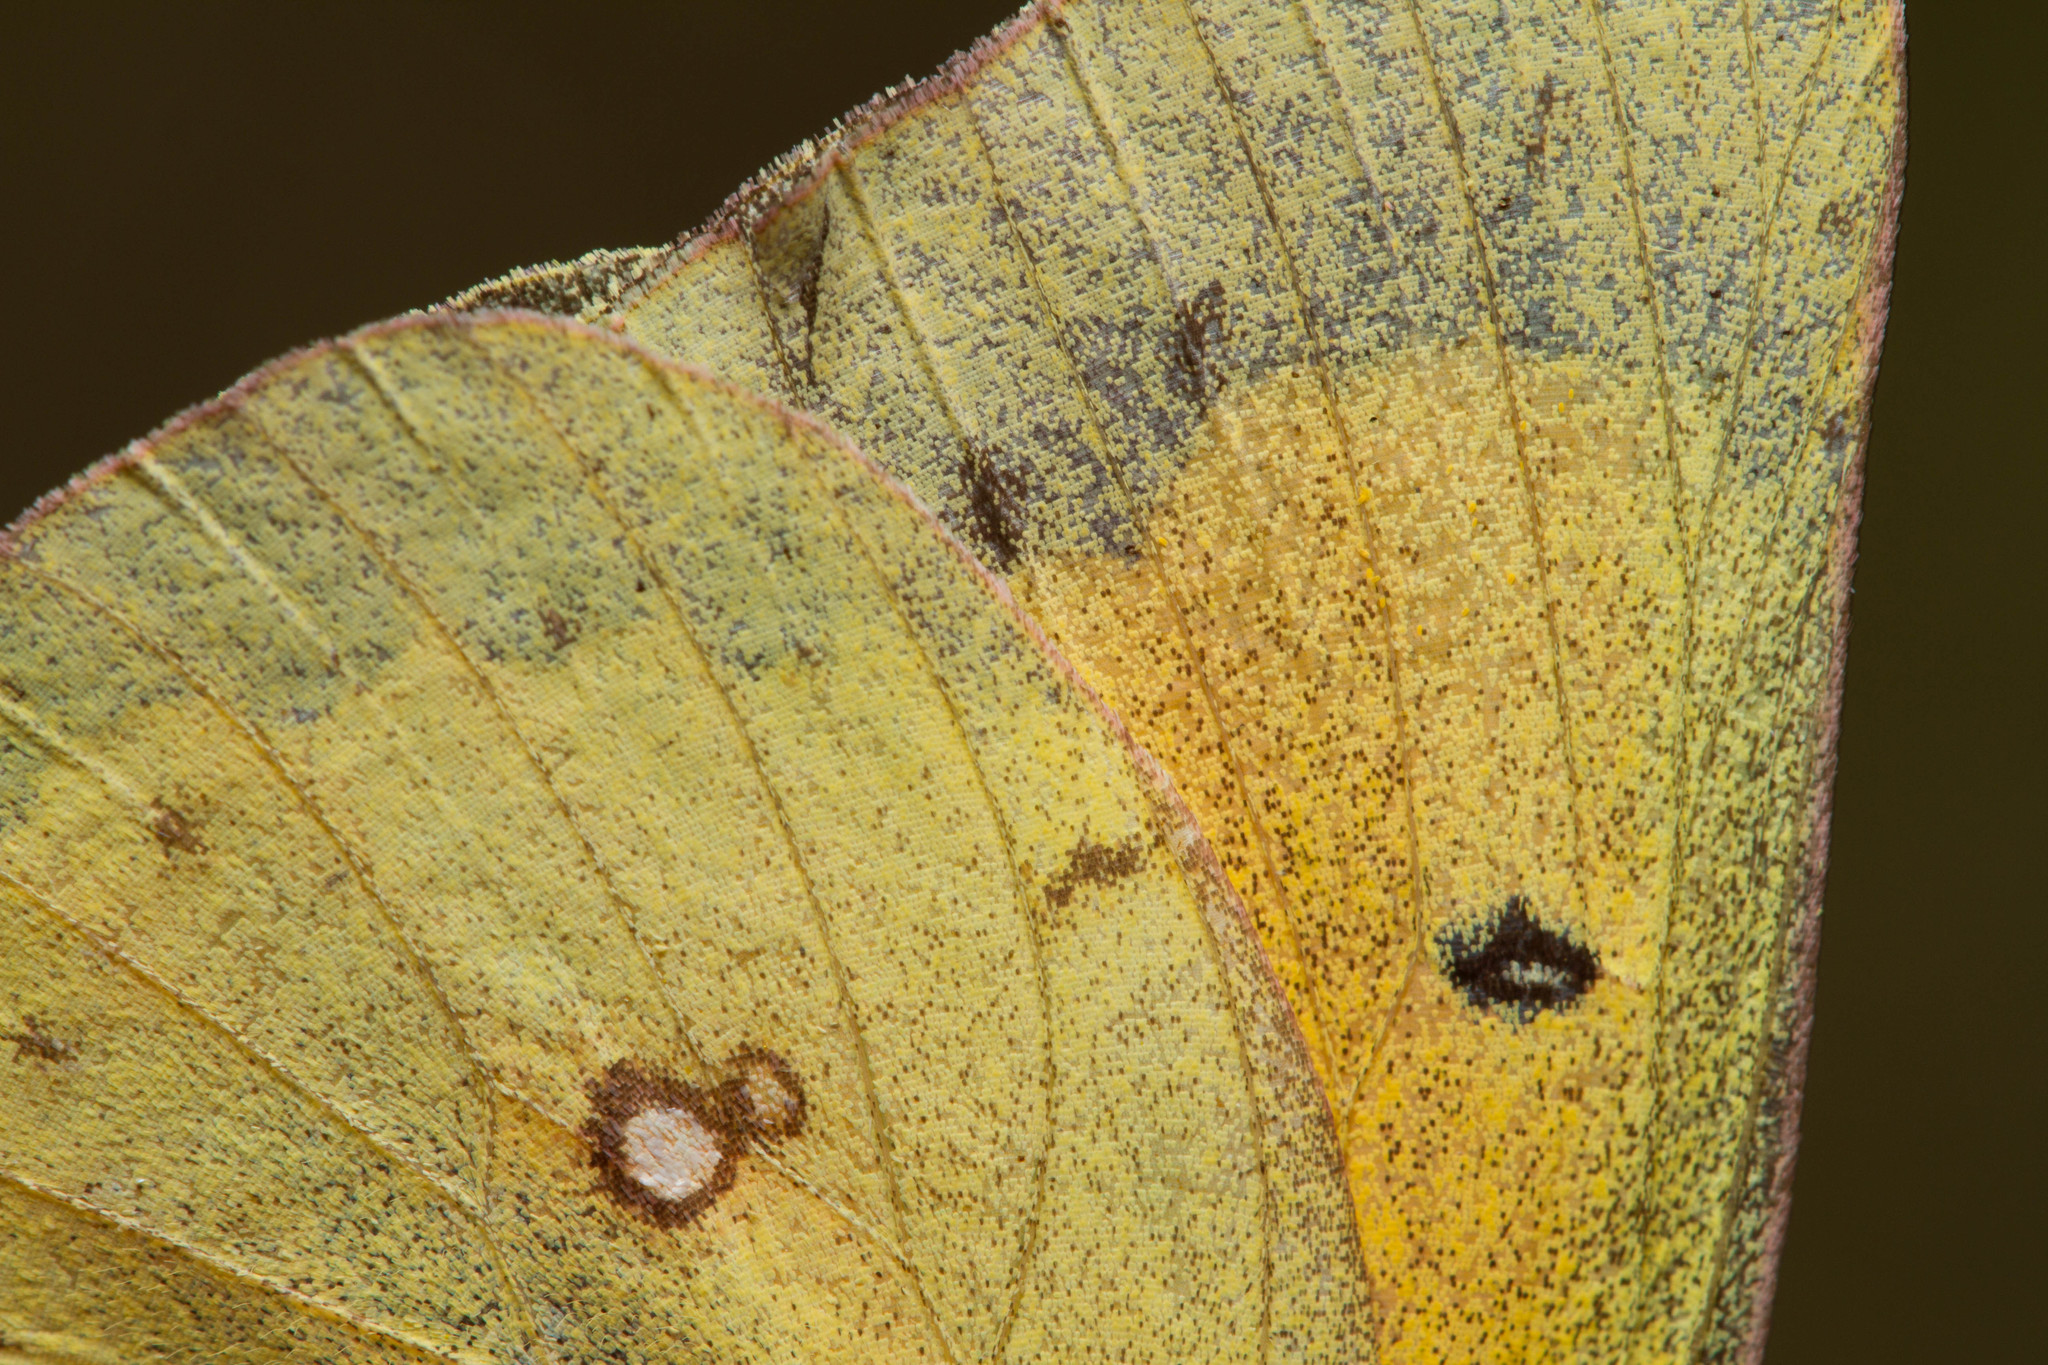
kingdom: Animalia
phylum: Arthropoda
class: Insecta
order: Lepidoptera
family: Pieridae
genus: Colias
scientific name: Colias eurytheme
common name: Alfalfa butterfly
